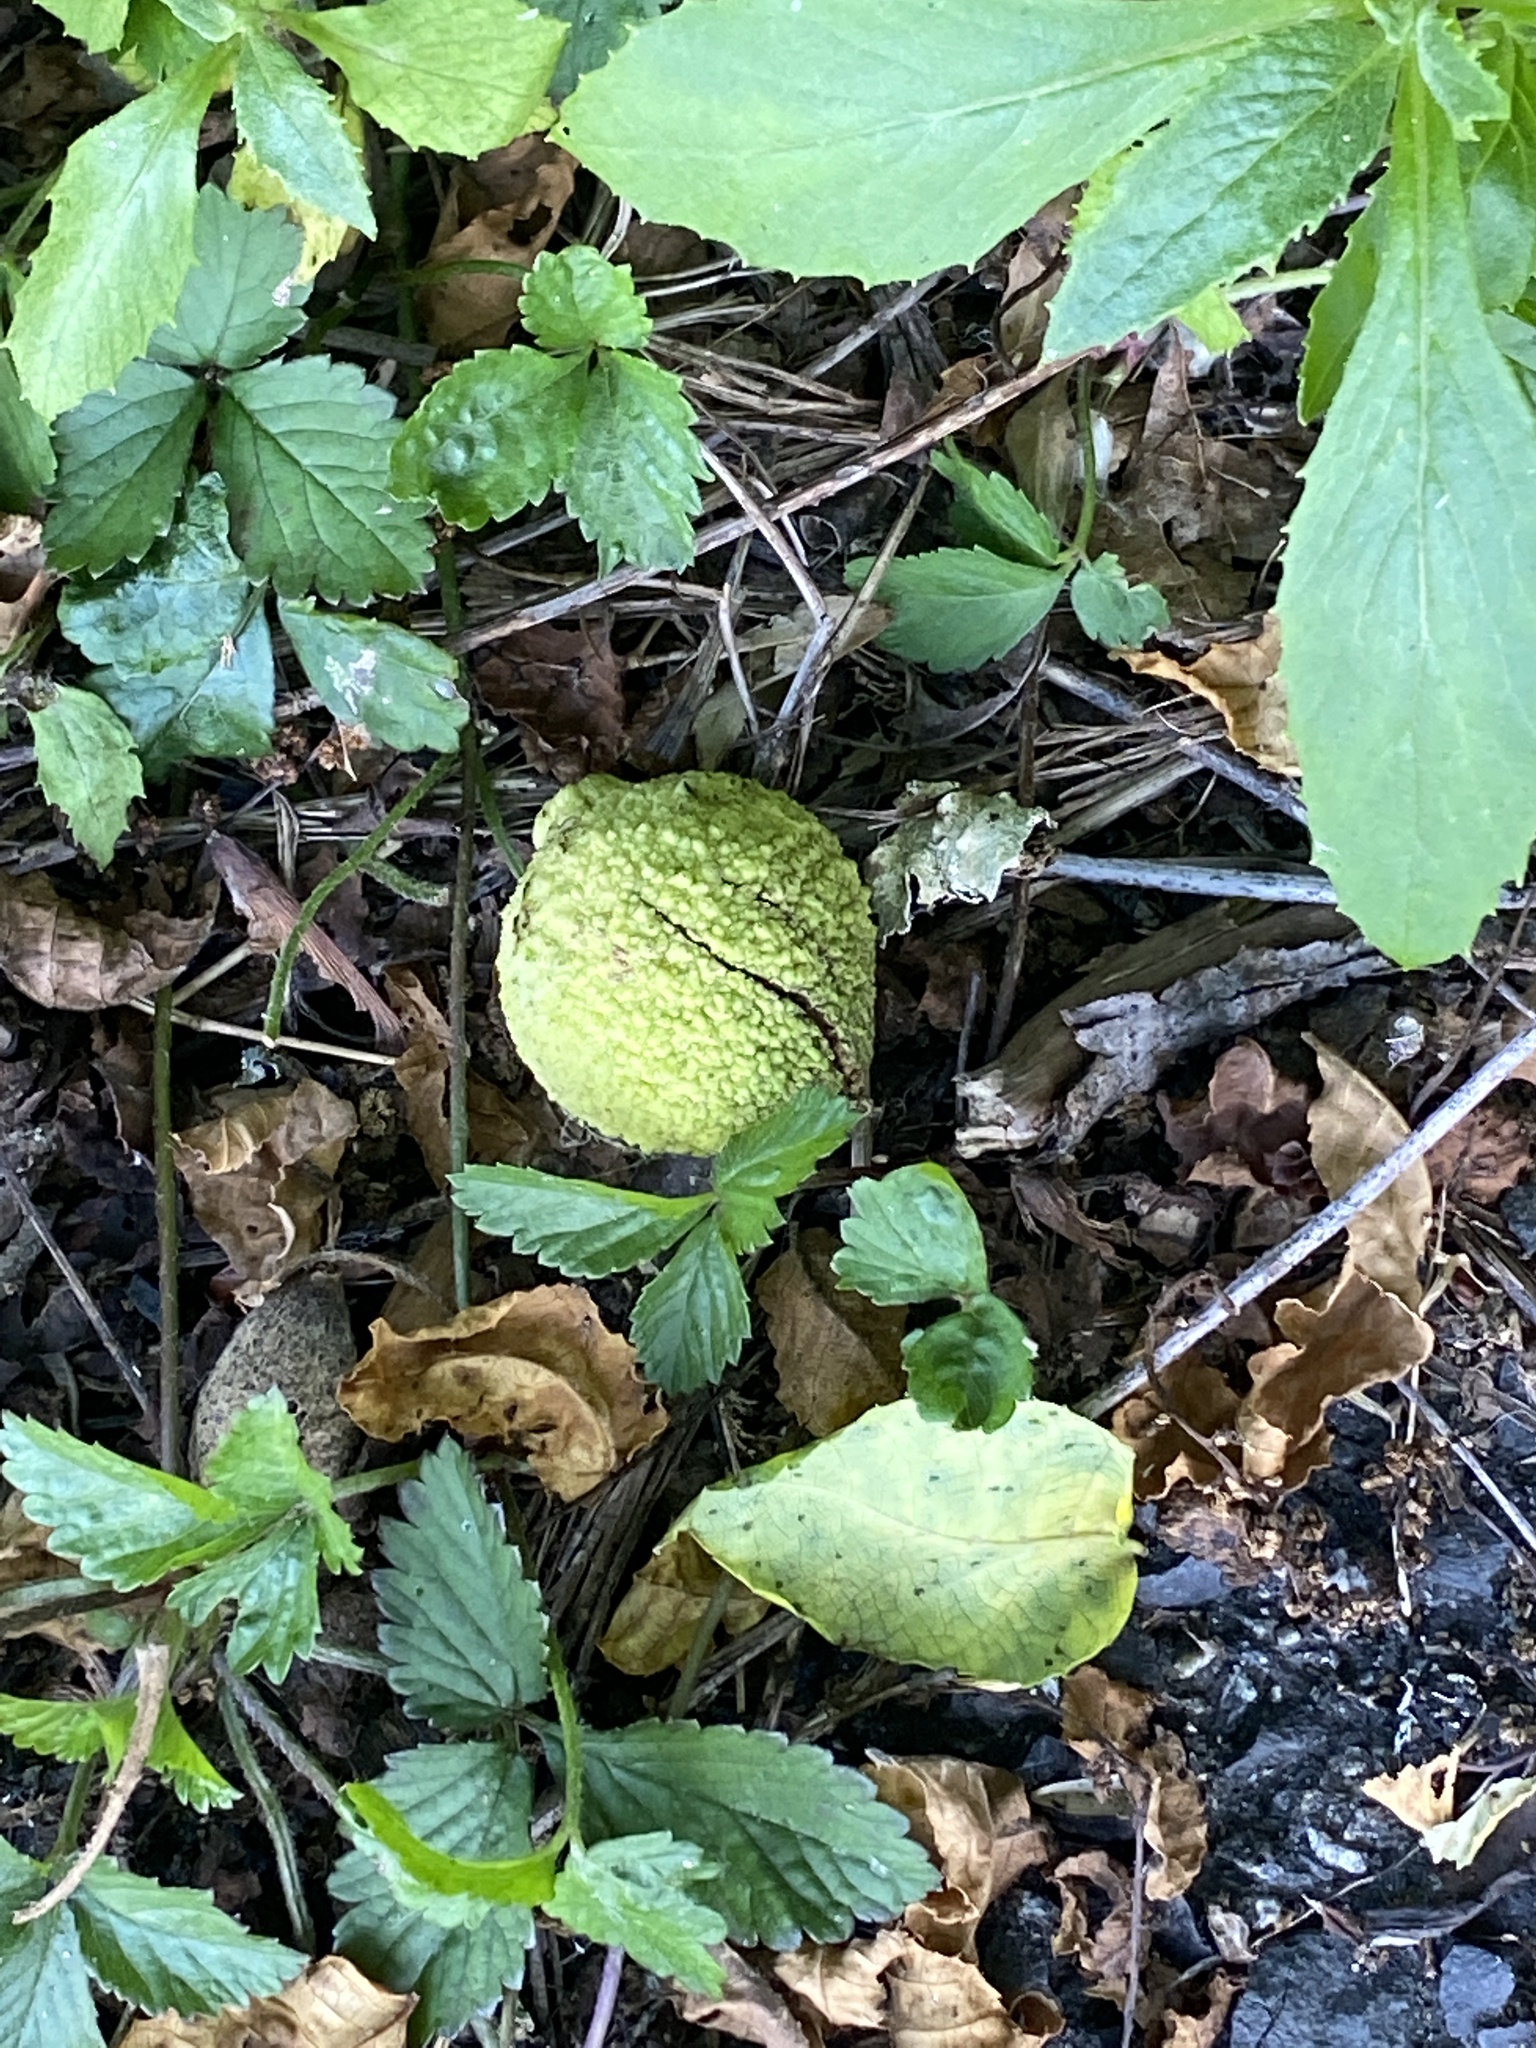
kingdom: Plantae
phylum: Tracheophyta
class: Magnoliopsida
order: Fagales
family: Juglandaceae
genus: Juglans
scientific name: Juglans nigra
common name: Black walnut
